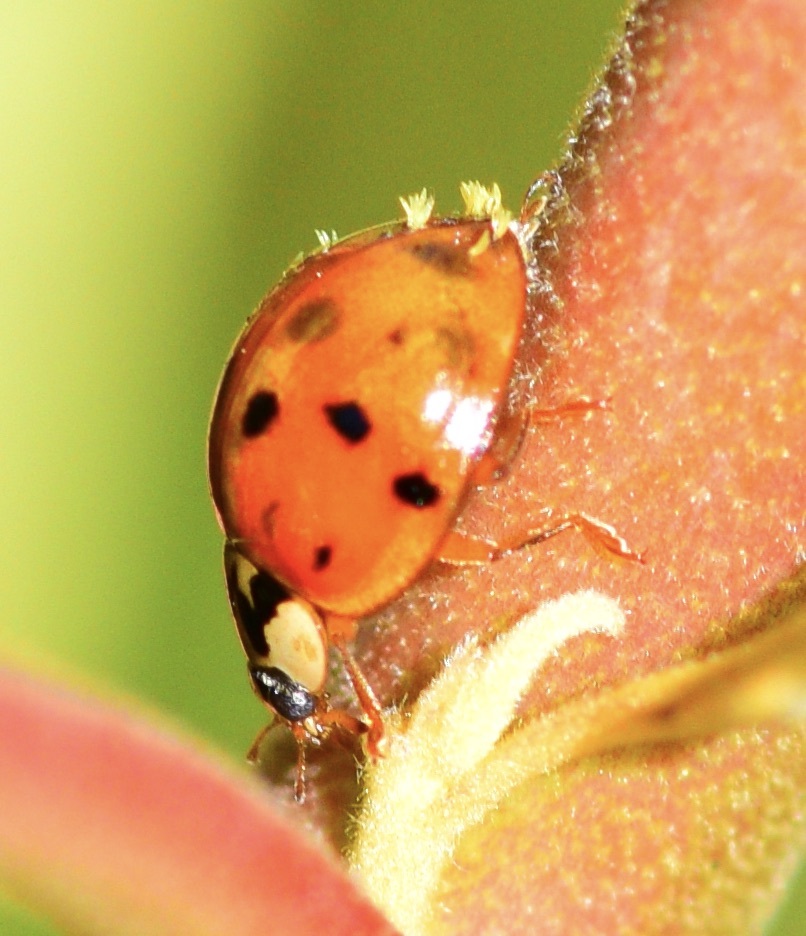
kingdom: Animalia
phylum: Arthropoda
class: Insecta
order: Coleoptera
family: Coccinellidae
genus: Harmonia
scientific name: Harmonia axyridis
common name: Harlequin ladybird
